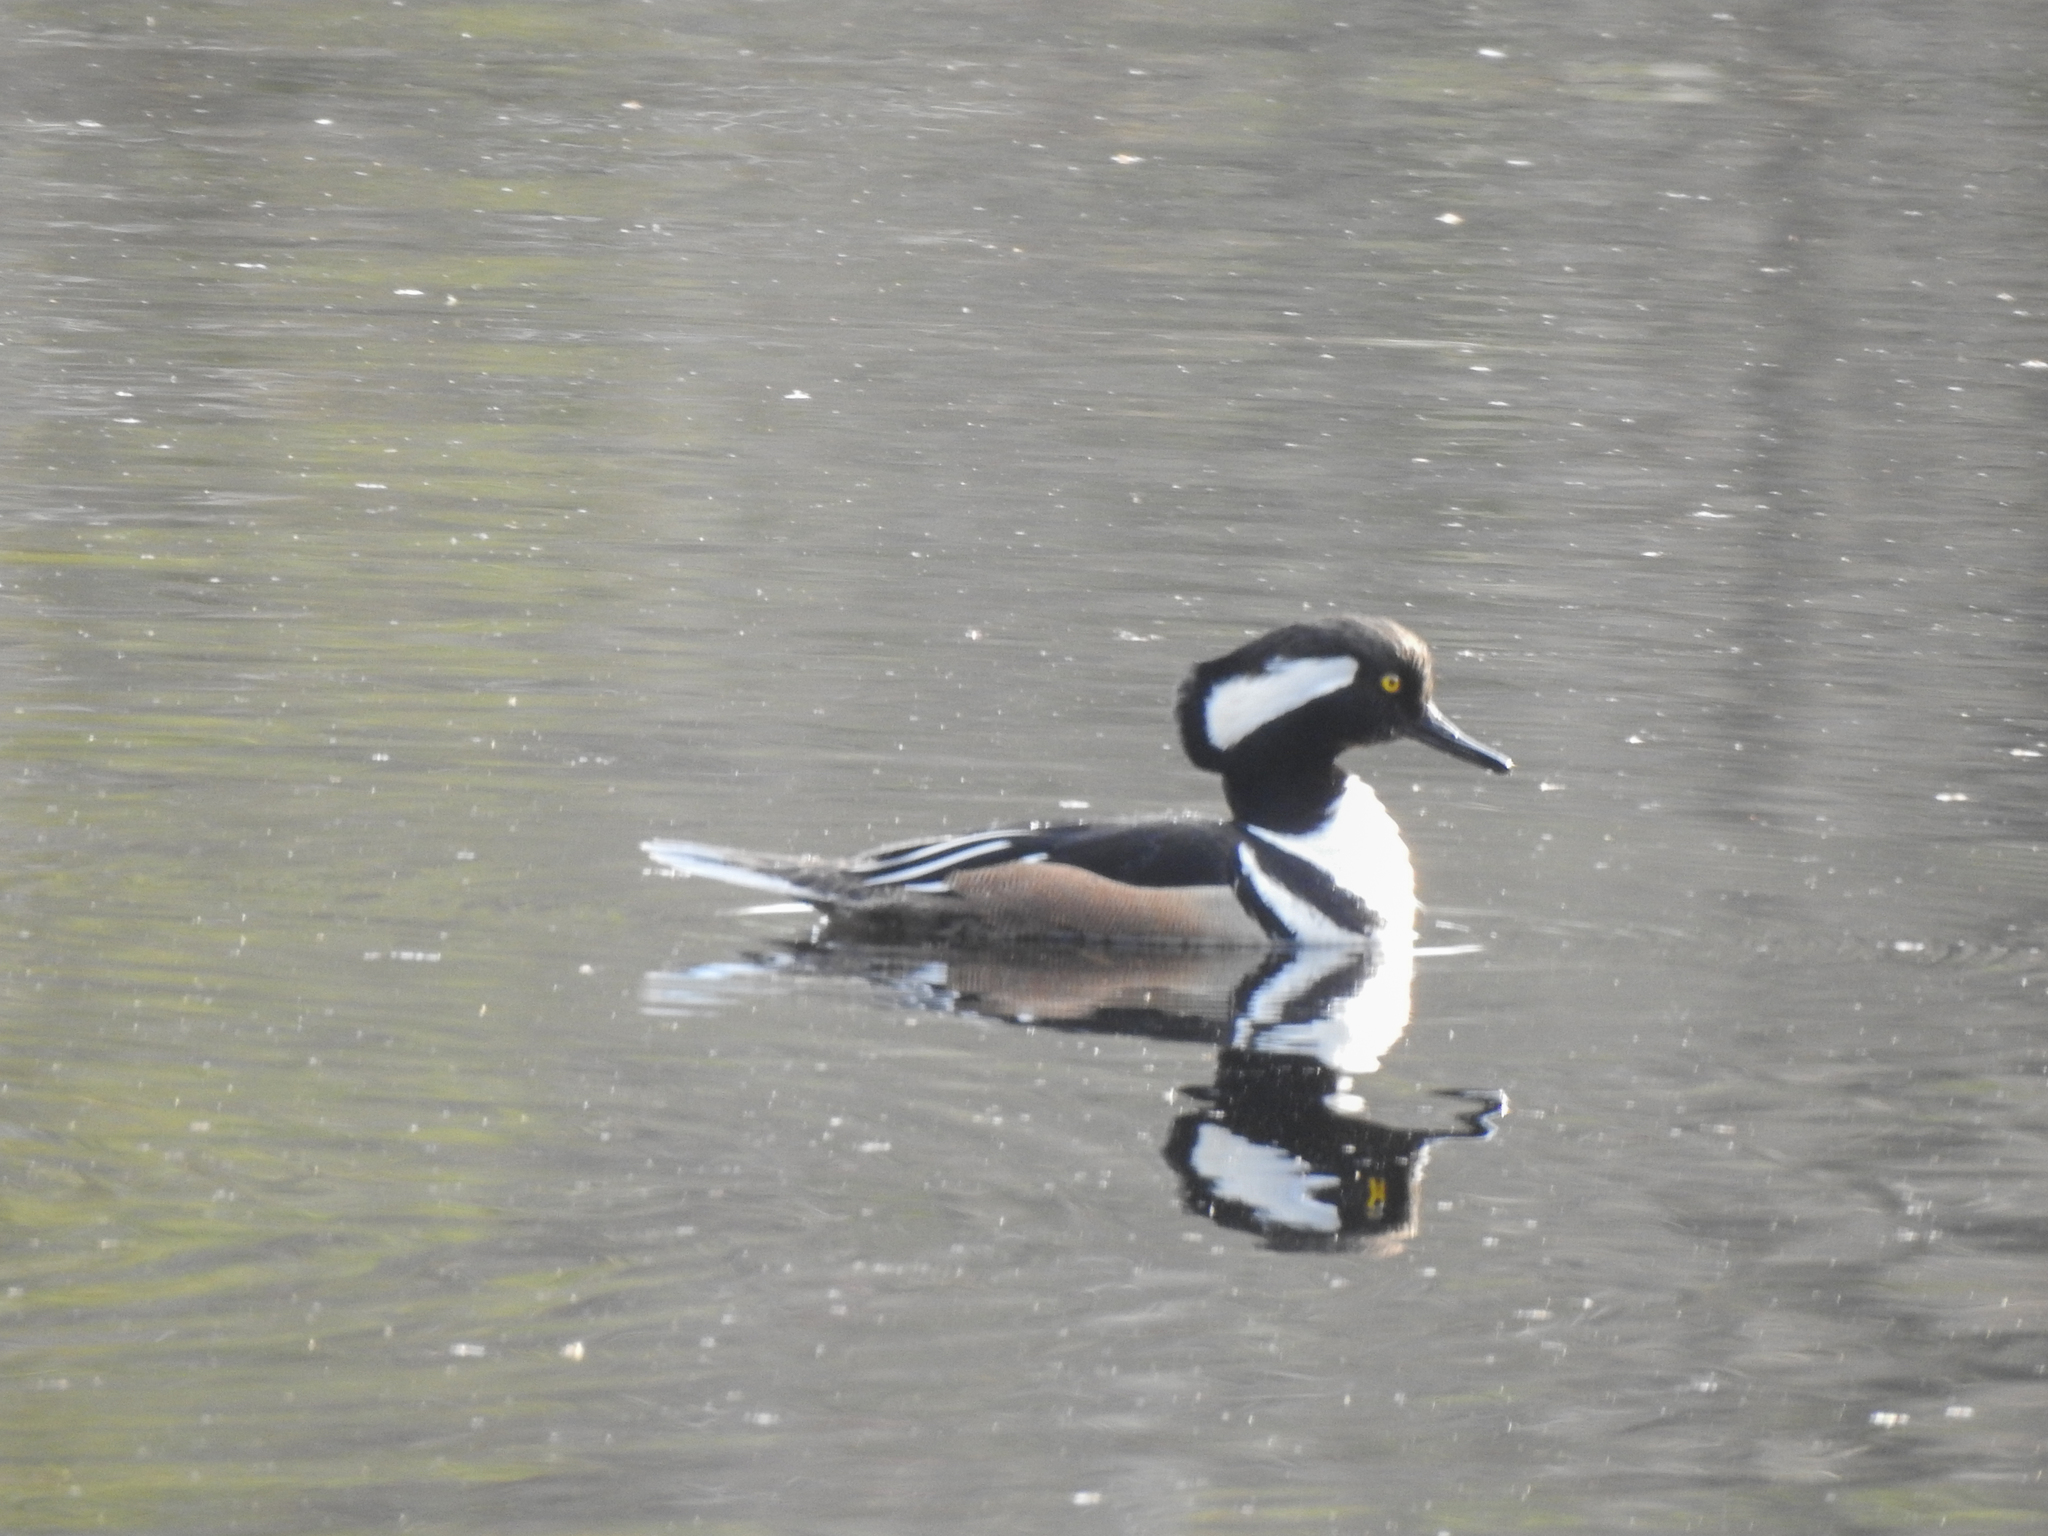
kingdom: Animalia
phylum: Chordata
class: Aves
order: Anseriformes
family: Anatidae
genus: Lophodytes
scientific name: Lophodytes cucullatus
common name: Hooded merganser
